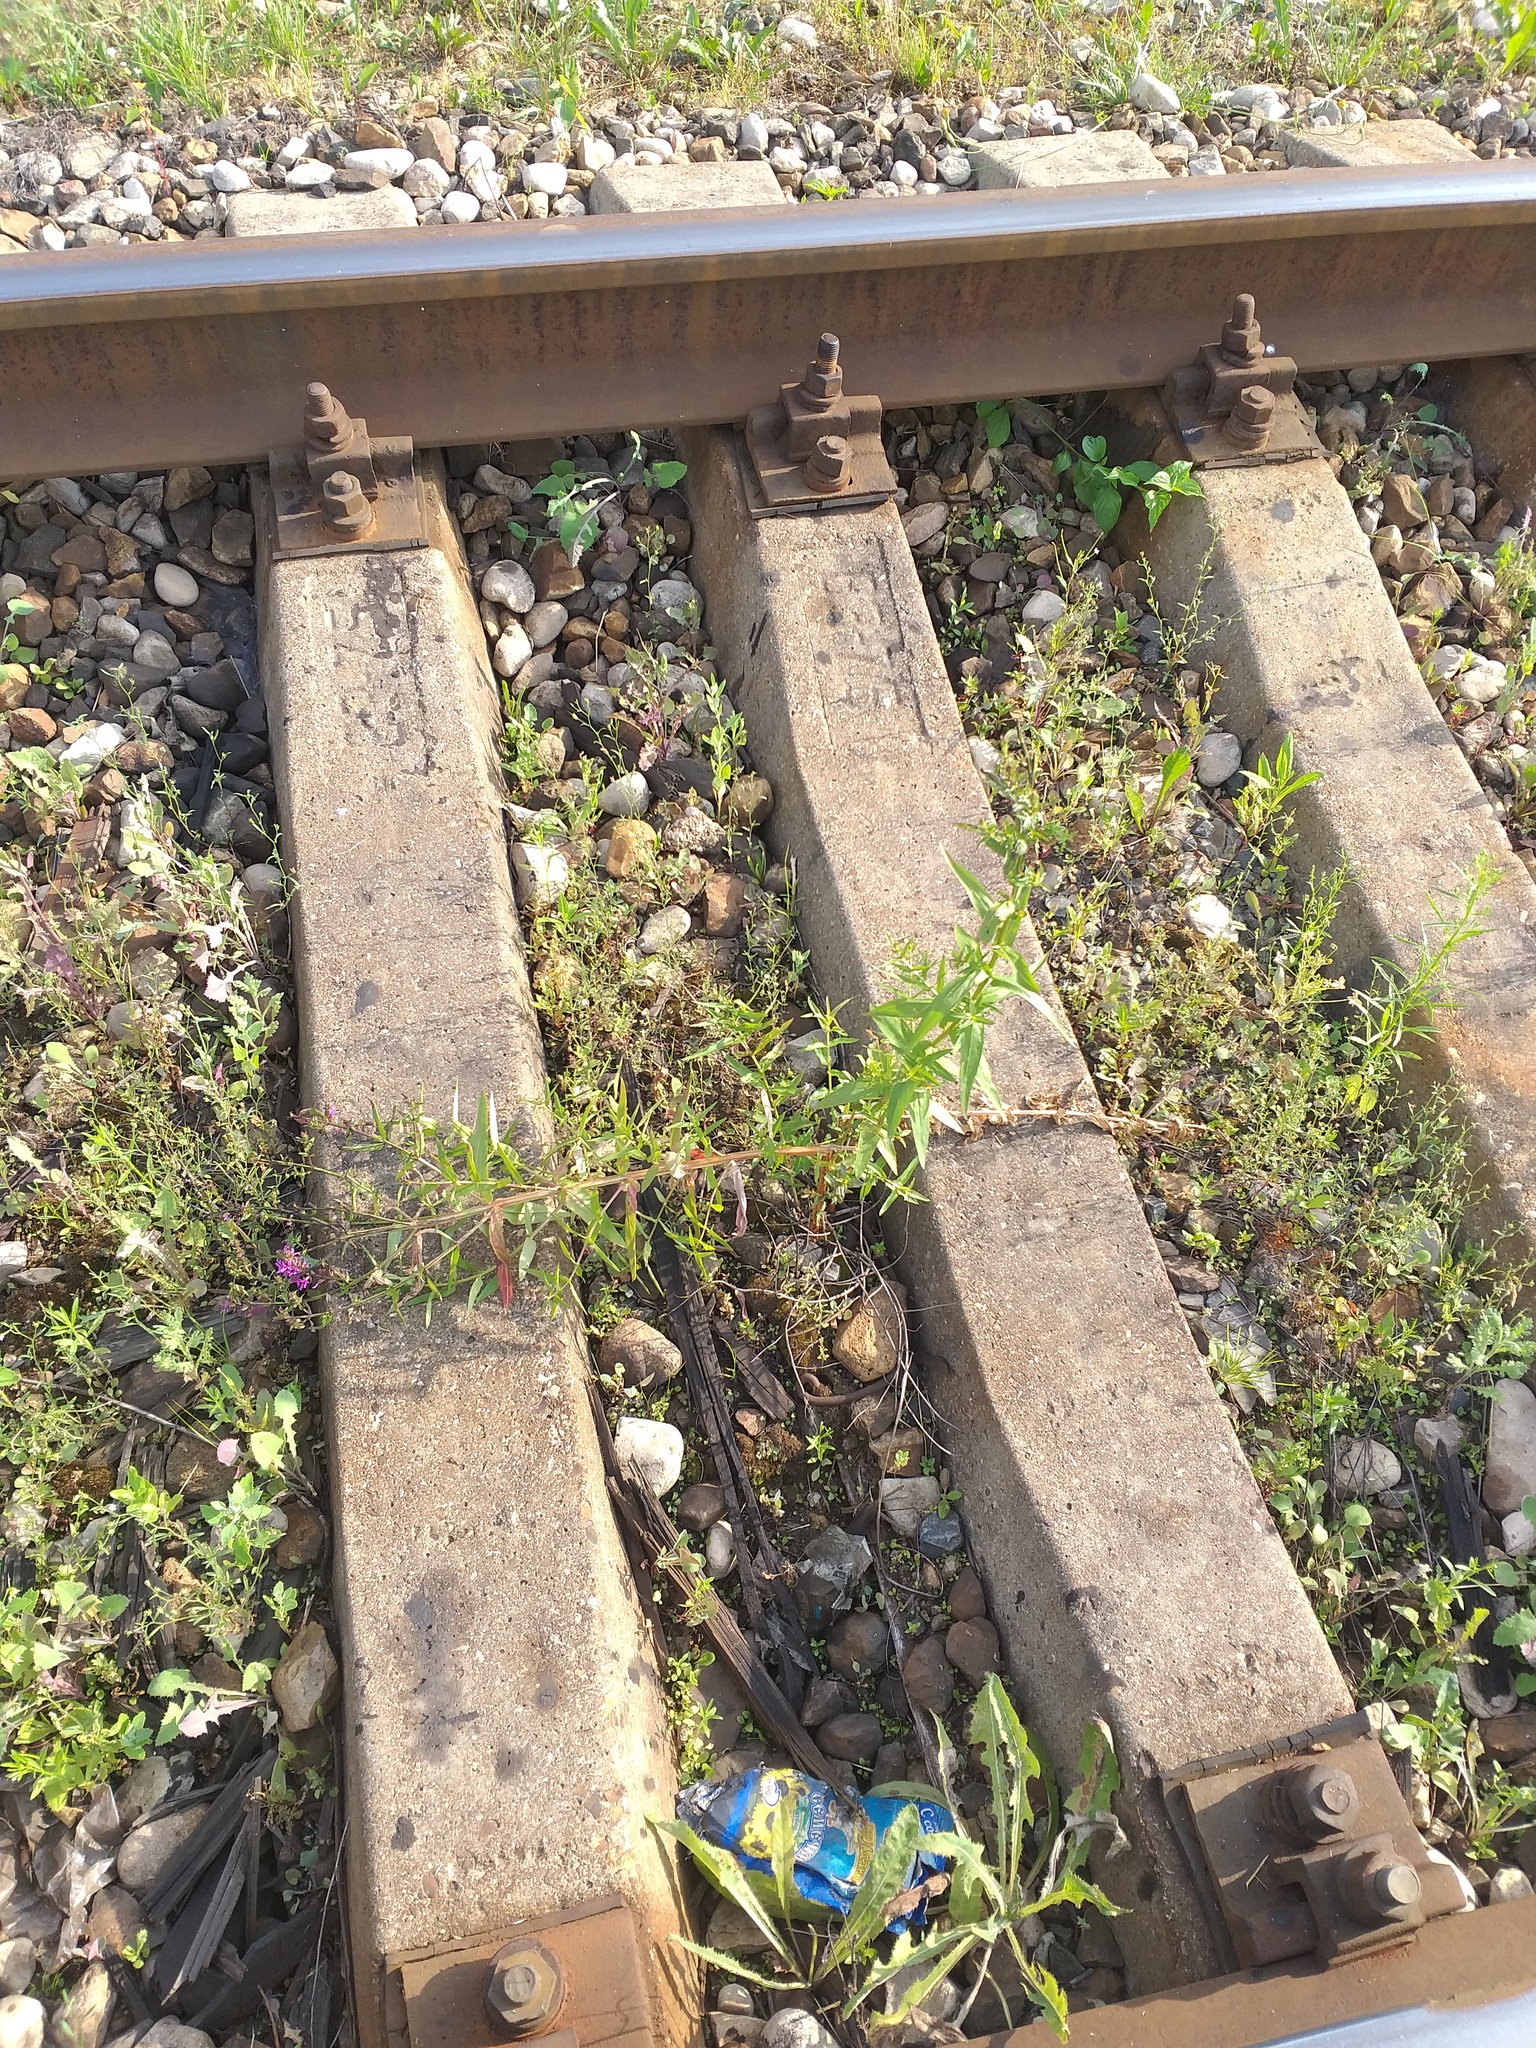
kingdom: Plantae
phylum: Tracheophyta
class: Magnoliopsida
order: Myrtales
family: Lythraceae
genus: Lythrum
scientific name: Lythrum salicaria
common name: Purple loosestrife
